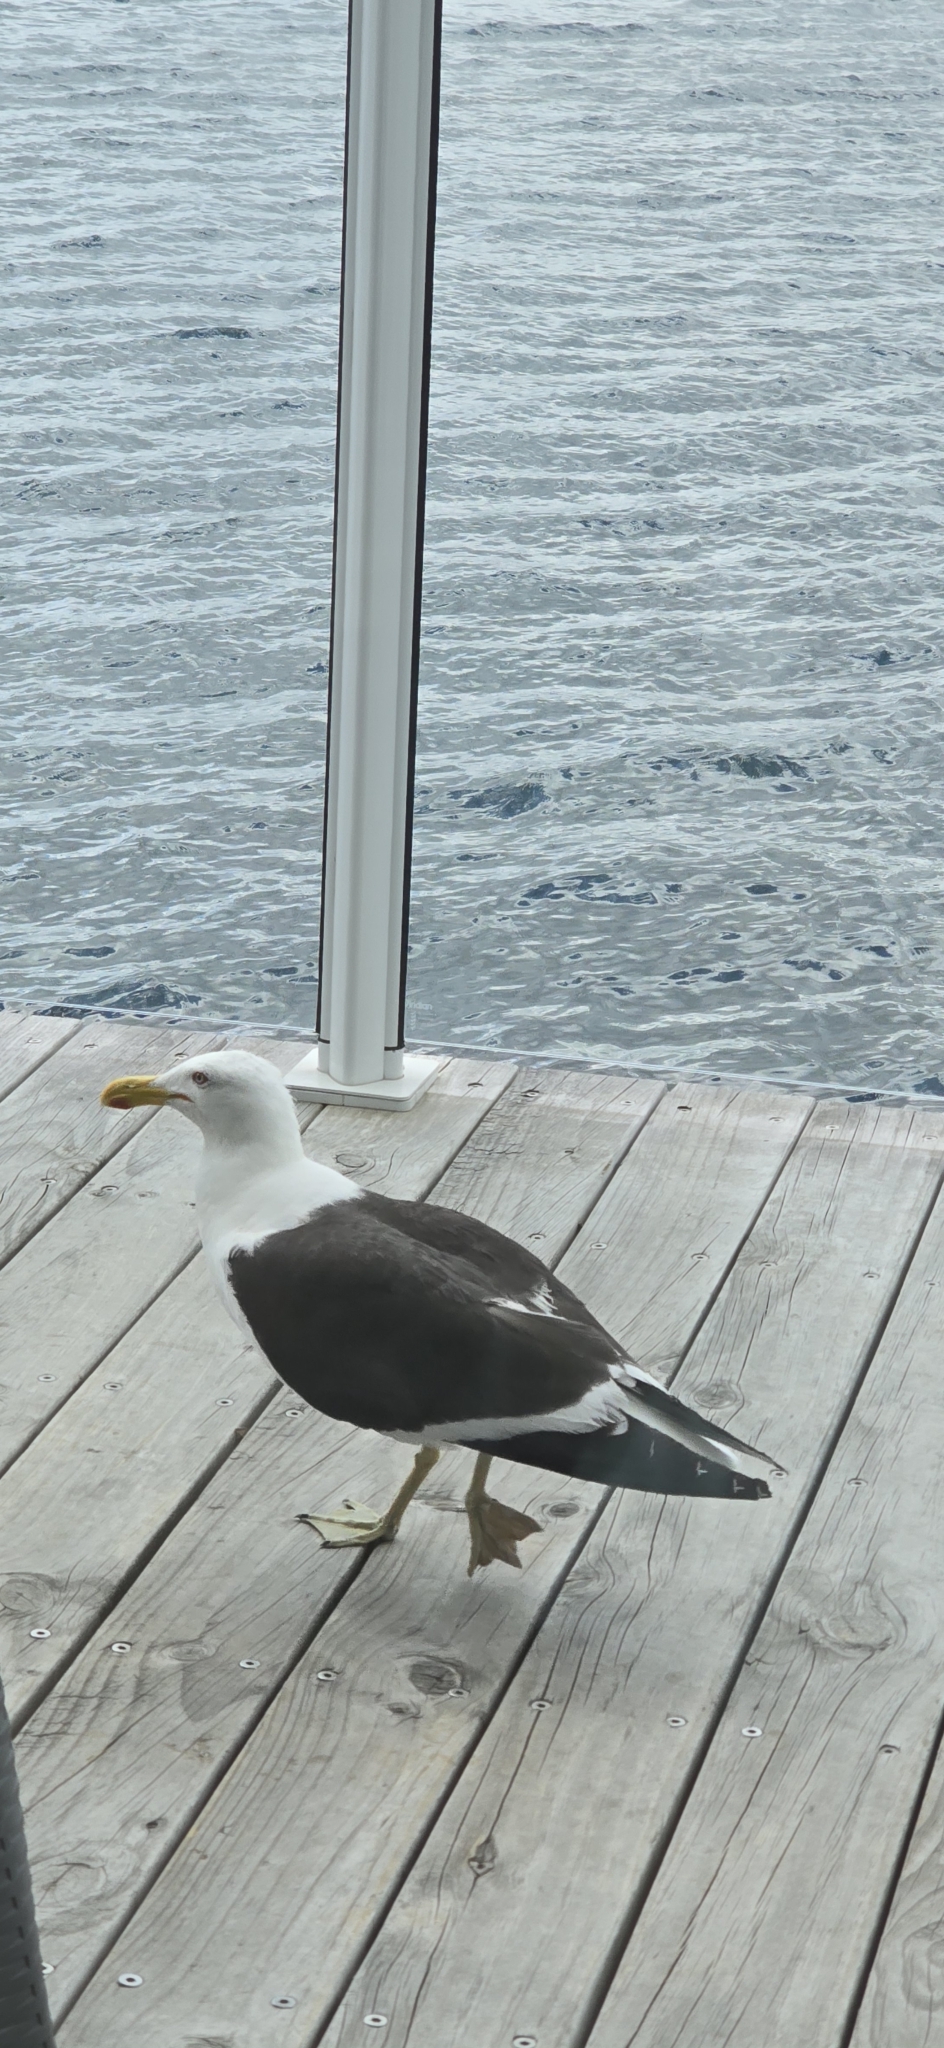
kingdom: Animalia
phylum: Chordata
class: Aves
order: Charadriiformes
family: Laridae
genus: Larus
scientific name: Larus dominicanus
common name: Kelp gull
